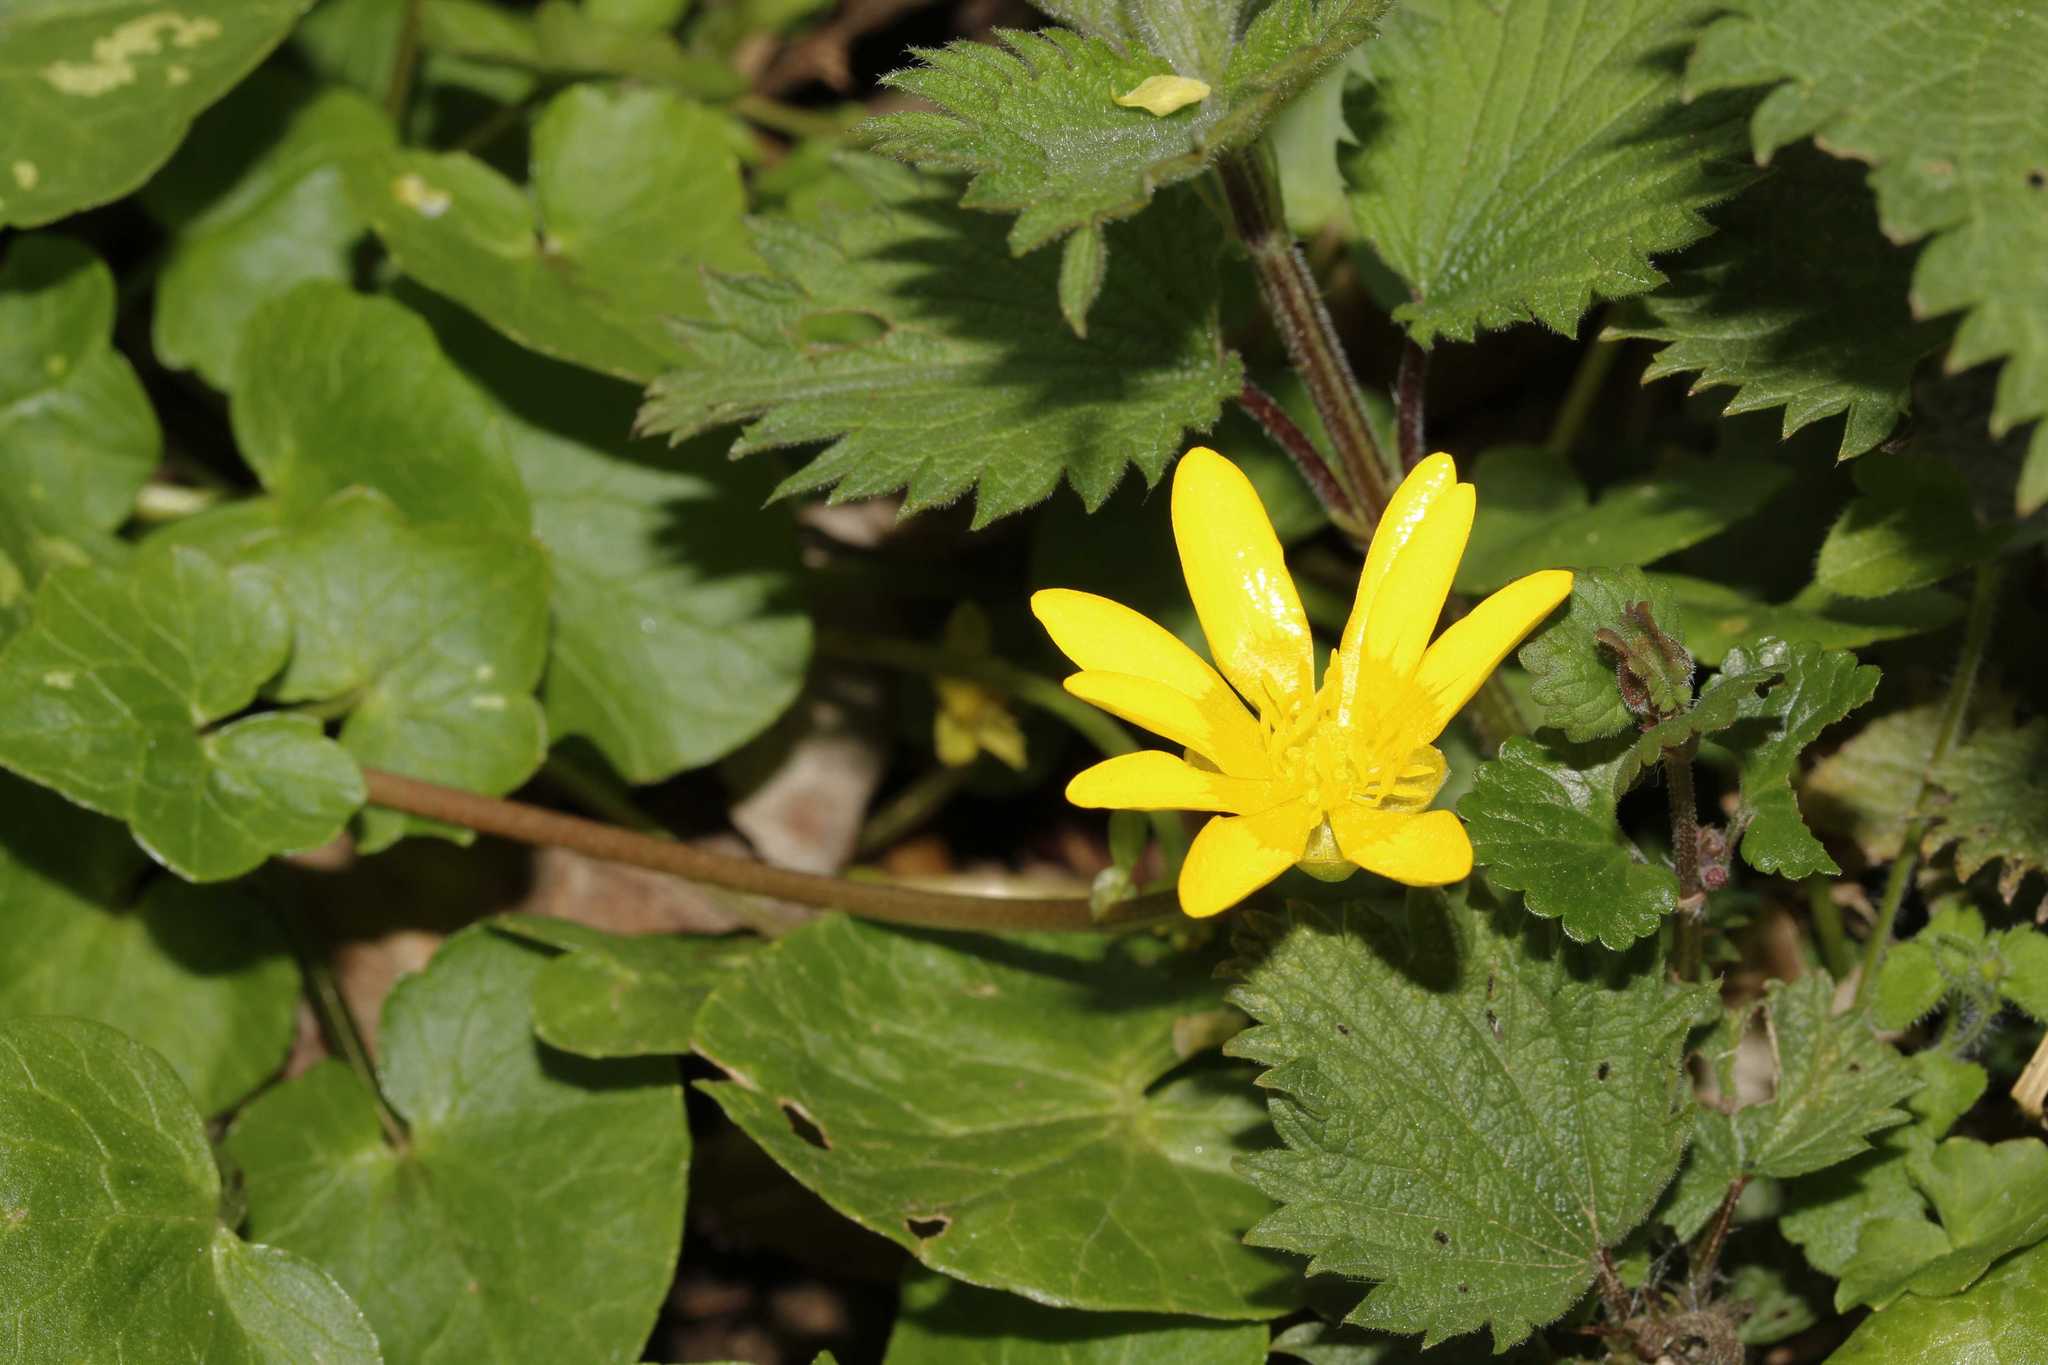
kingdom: Plantae
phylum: Tracheophyta
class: Magnoliopsida
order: Ranunculales
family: Ranunculaceae
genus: Ficaria
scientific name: Ficaria verna
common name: Lesser celandine
